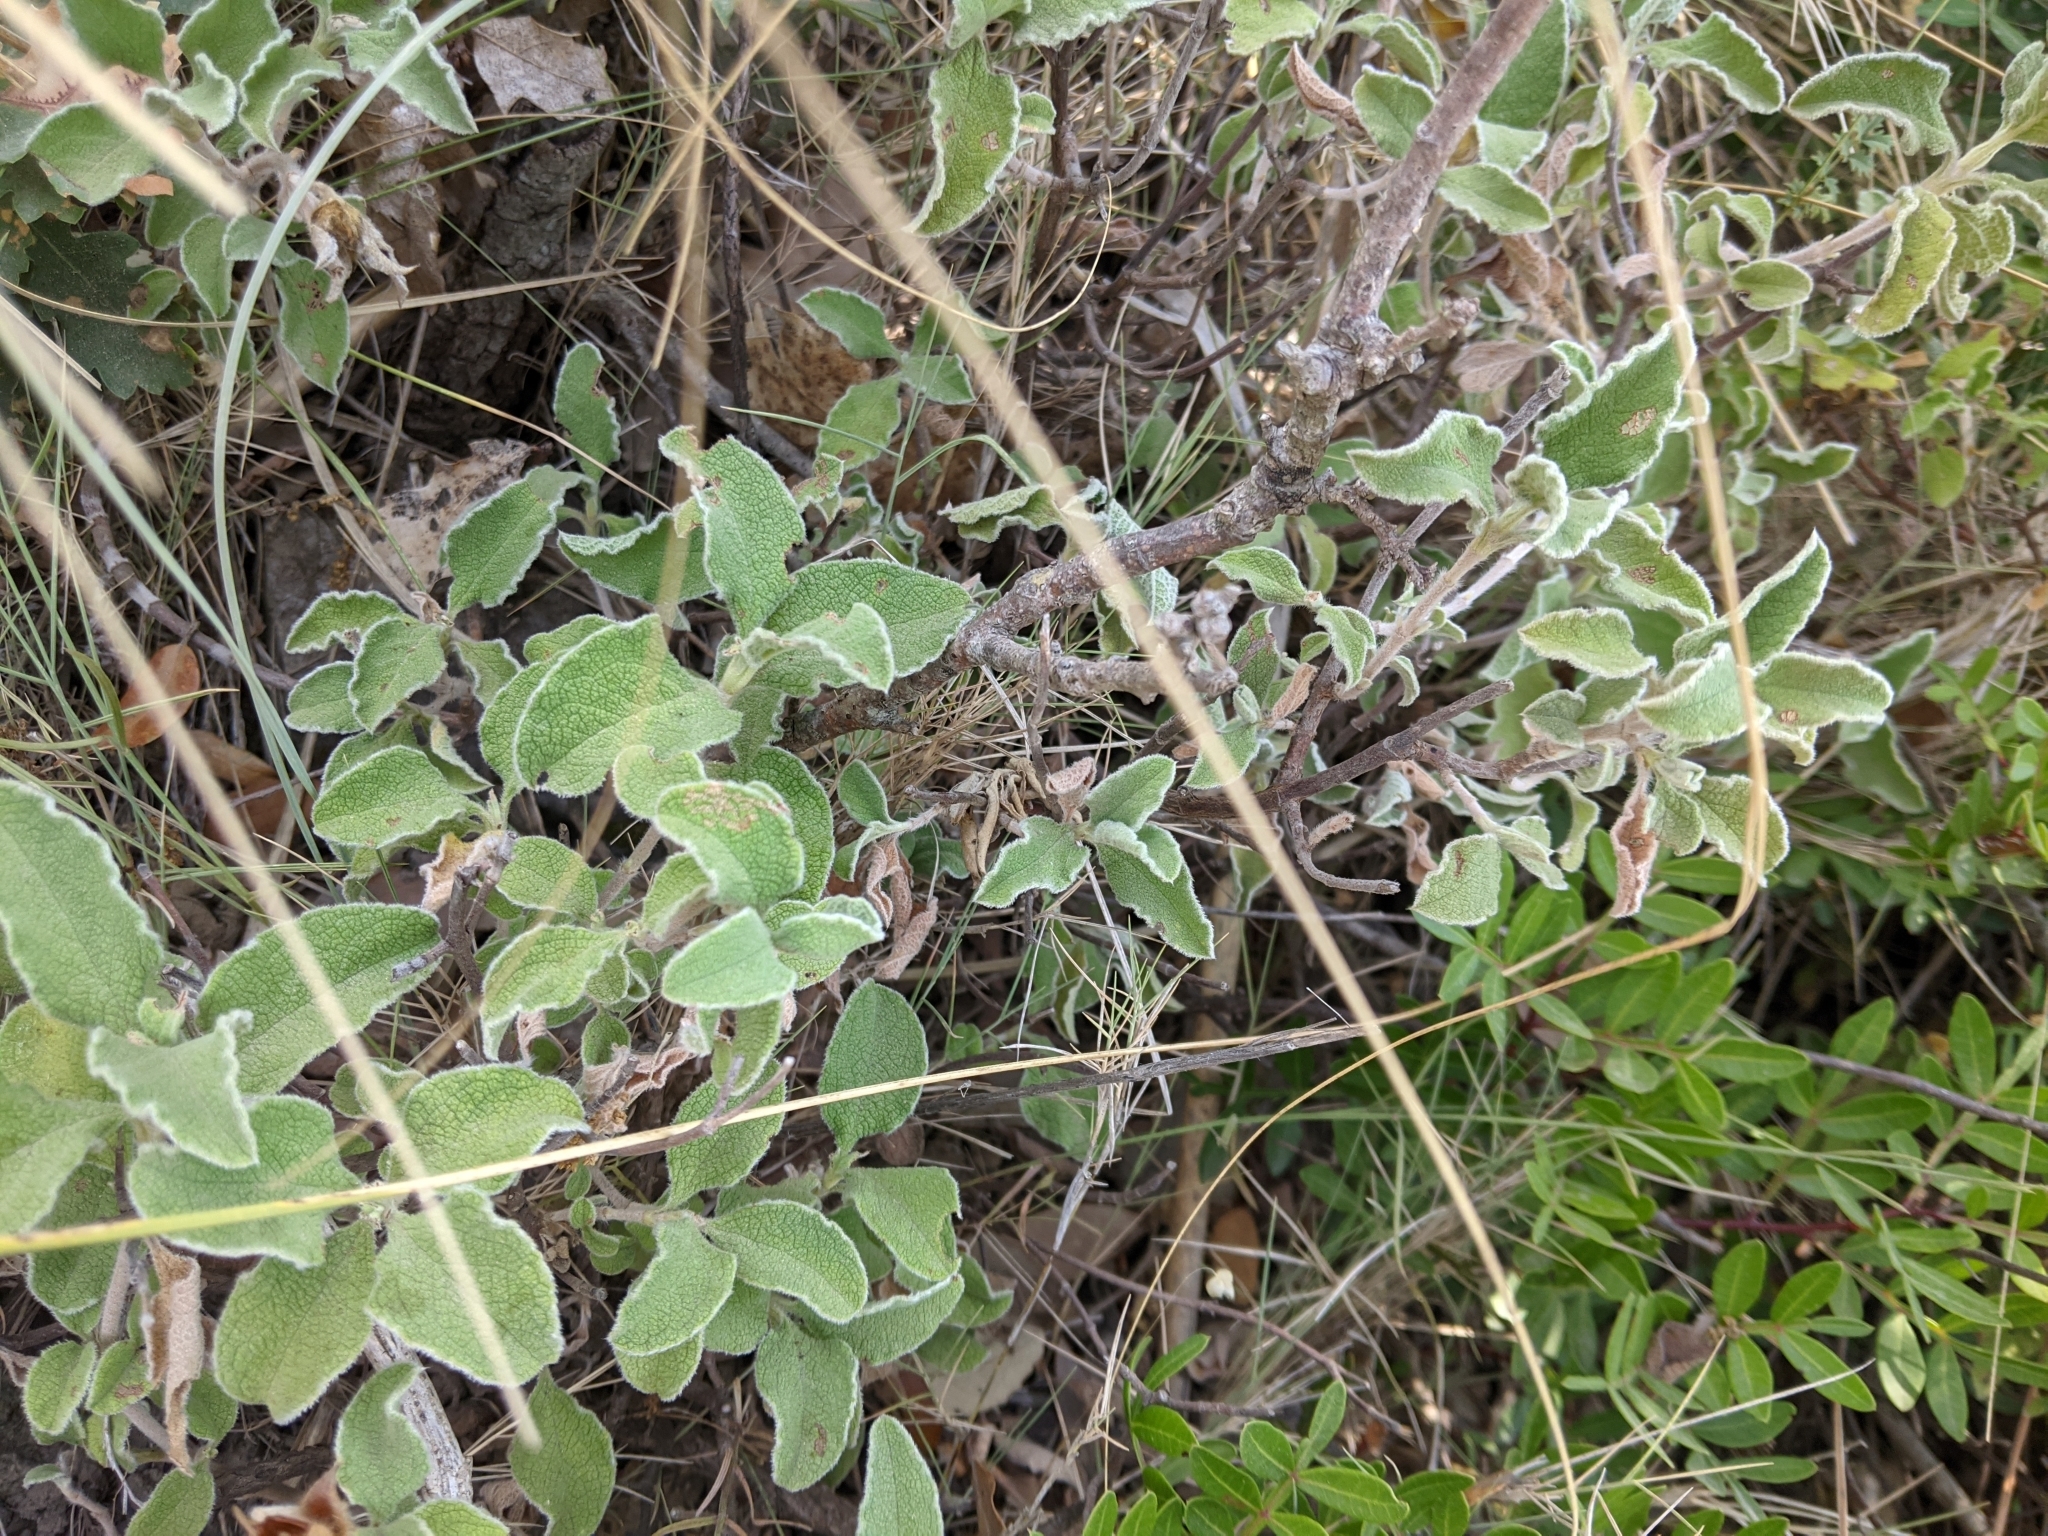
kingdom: Plantae
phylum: Tracheophyta
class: Magnoliopsida
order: Malvales
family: Cistaceae
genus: Cistus
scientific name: Cistus creticus
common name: Cretan rockrose
